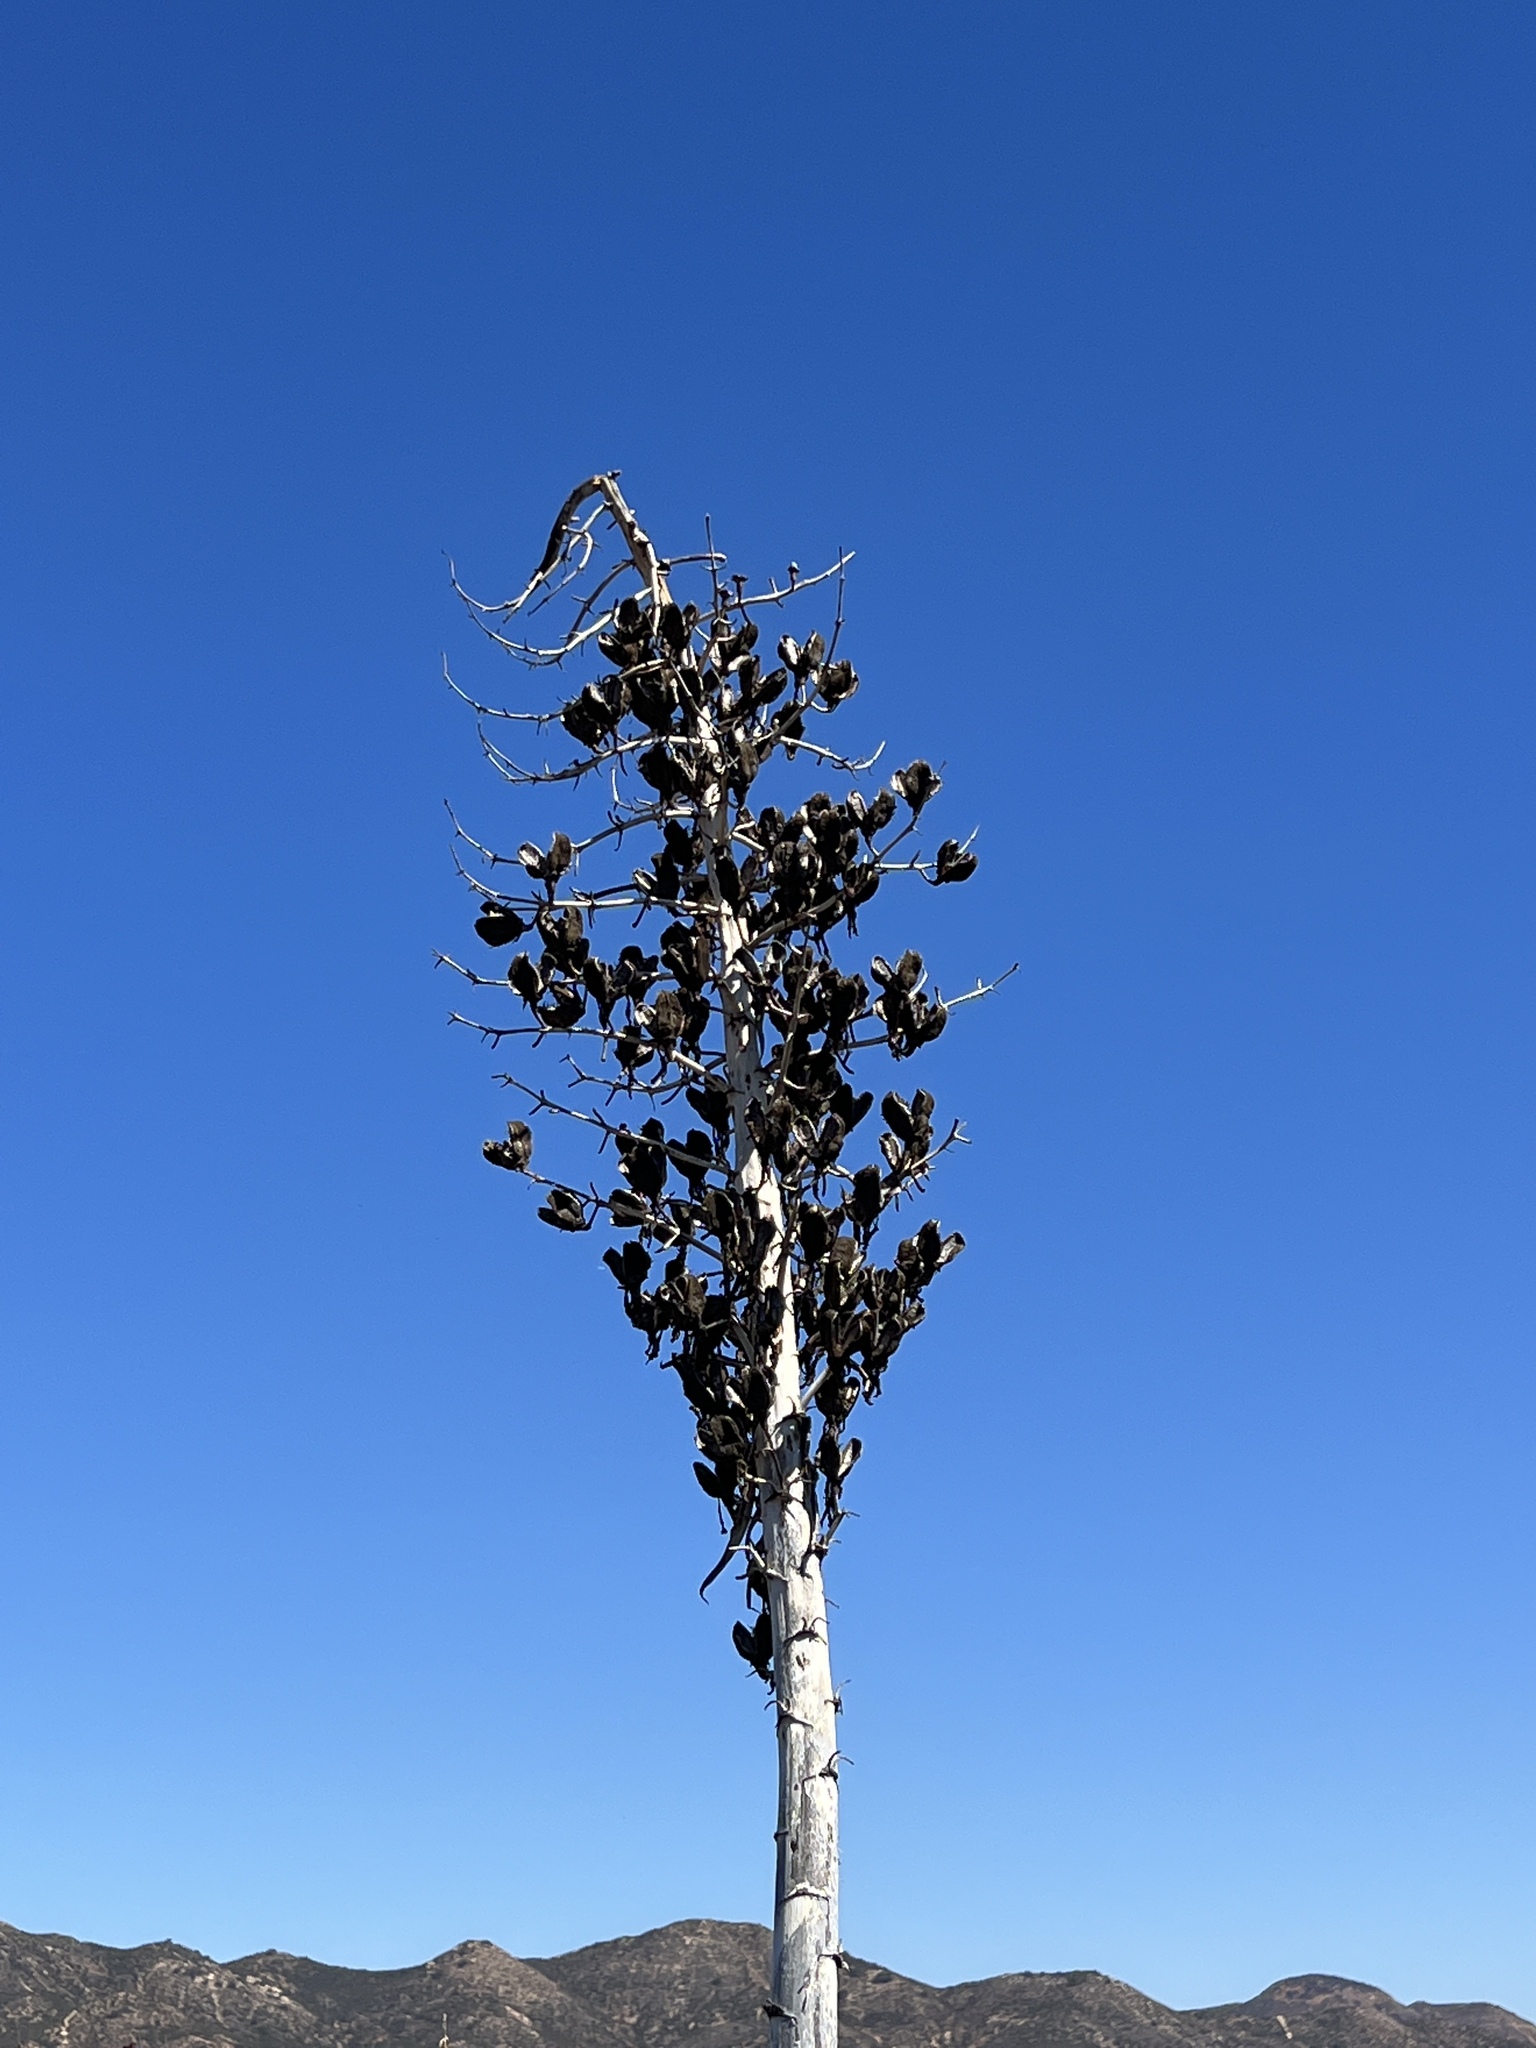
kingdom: Plantae
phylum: Tracheophyta
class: Liliopsida
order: Asparagales
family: Asparagaceae
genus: Hesperoyucca
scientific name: Hesperoyucca whipplei
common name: Our lord's-candle
